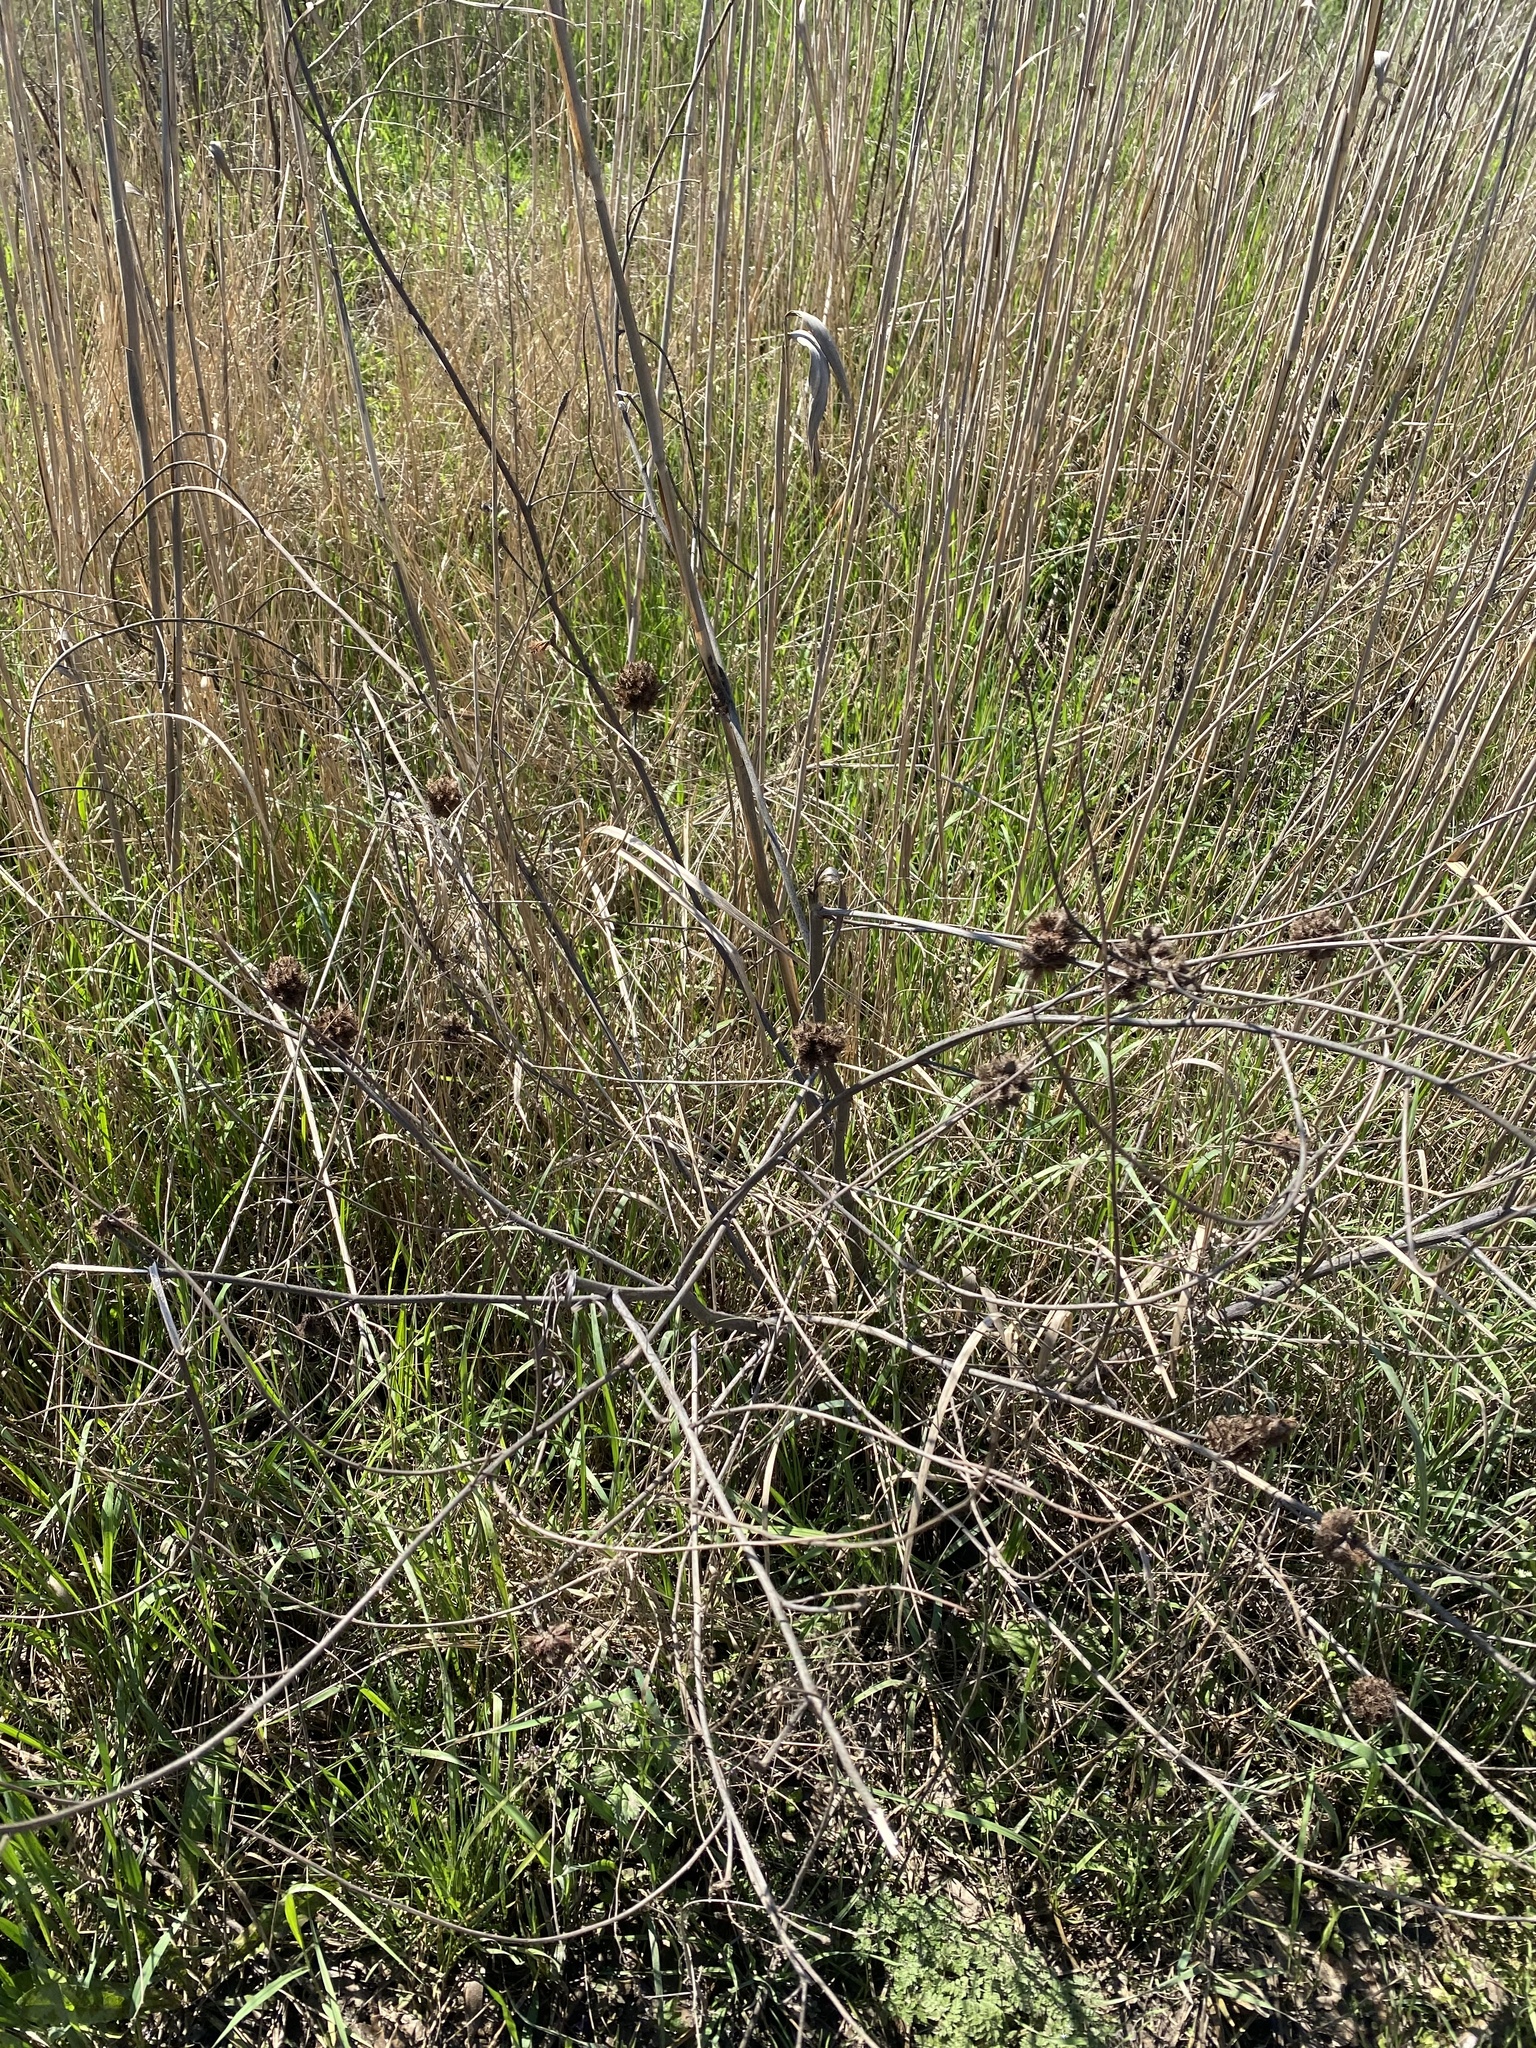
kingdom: Plantae
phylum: Tracheophyta
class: Magnoliopsida
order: Fabales
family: Fabaceae
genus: Glycyrrhiza
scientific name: Glycyrrhiza echinata
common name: German liquorice
